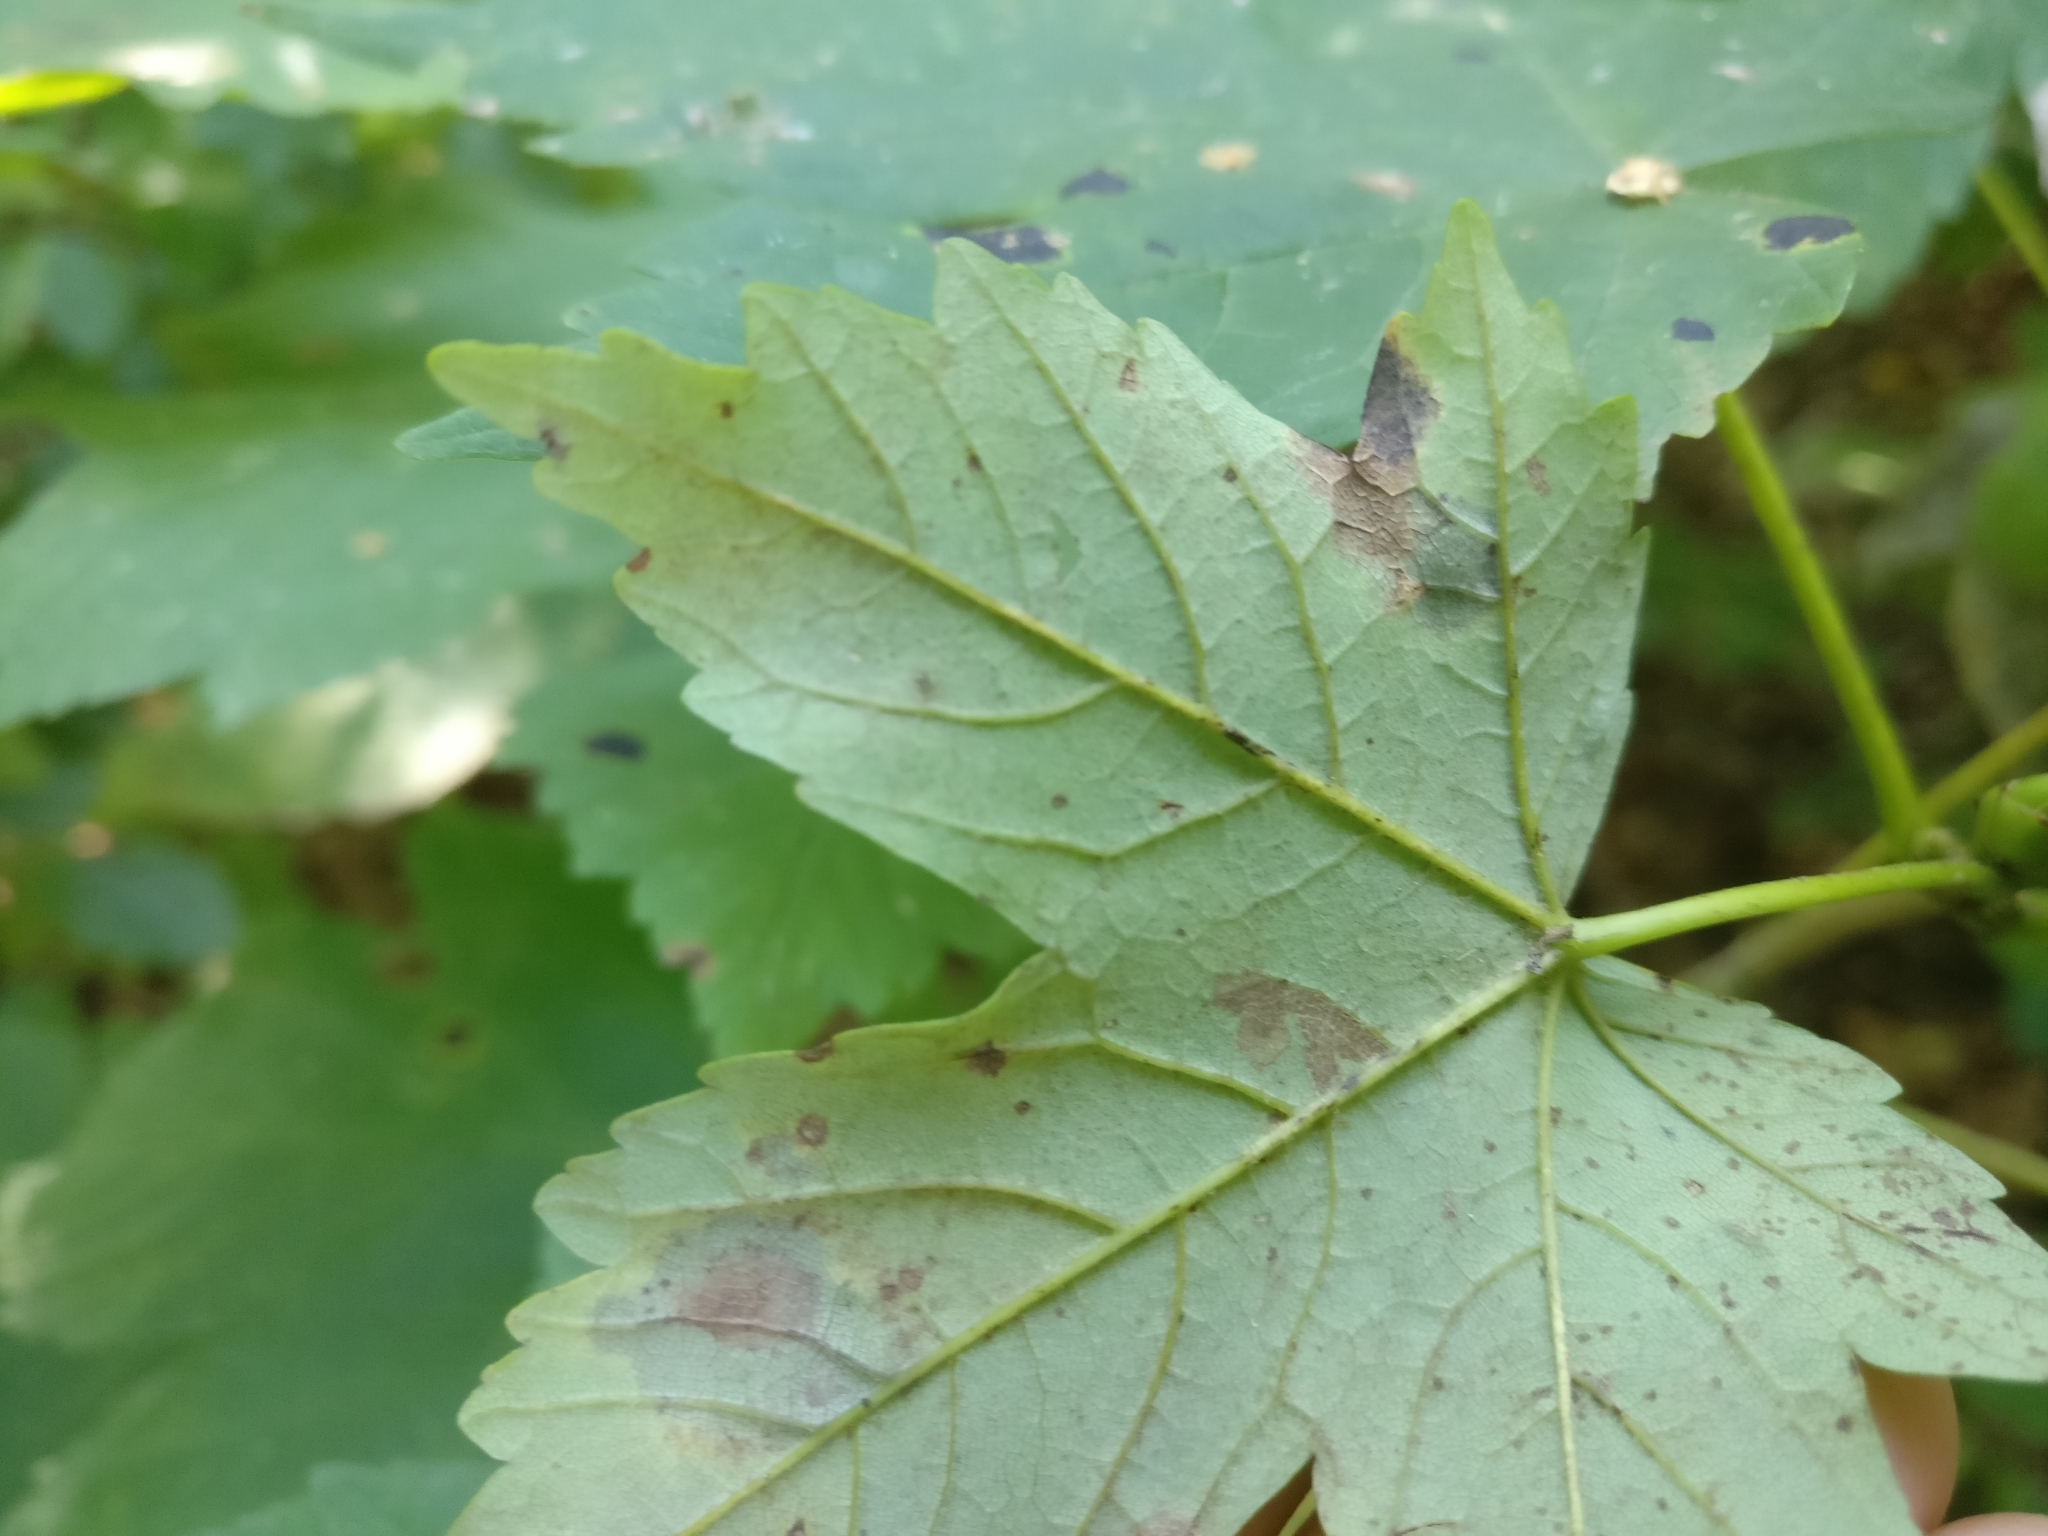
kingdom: Fungi
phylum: Ascomycota
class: Leotiomycetes
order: Rhytismatales
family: Rhytismataceae
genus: Rhytisma
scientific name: Rhytisma acerinum
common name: European tar spot
